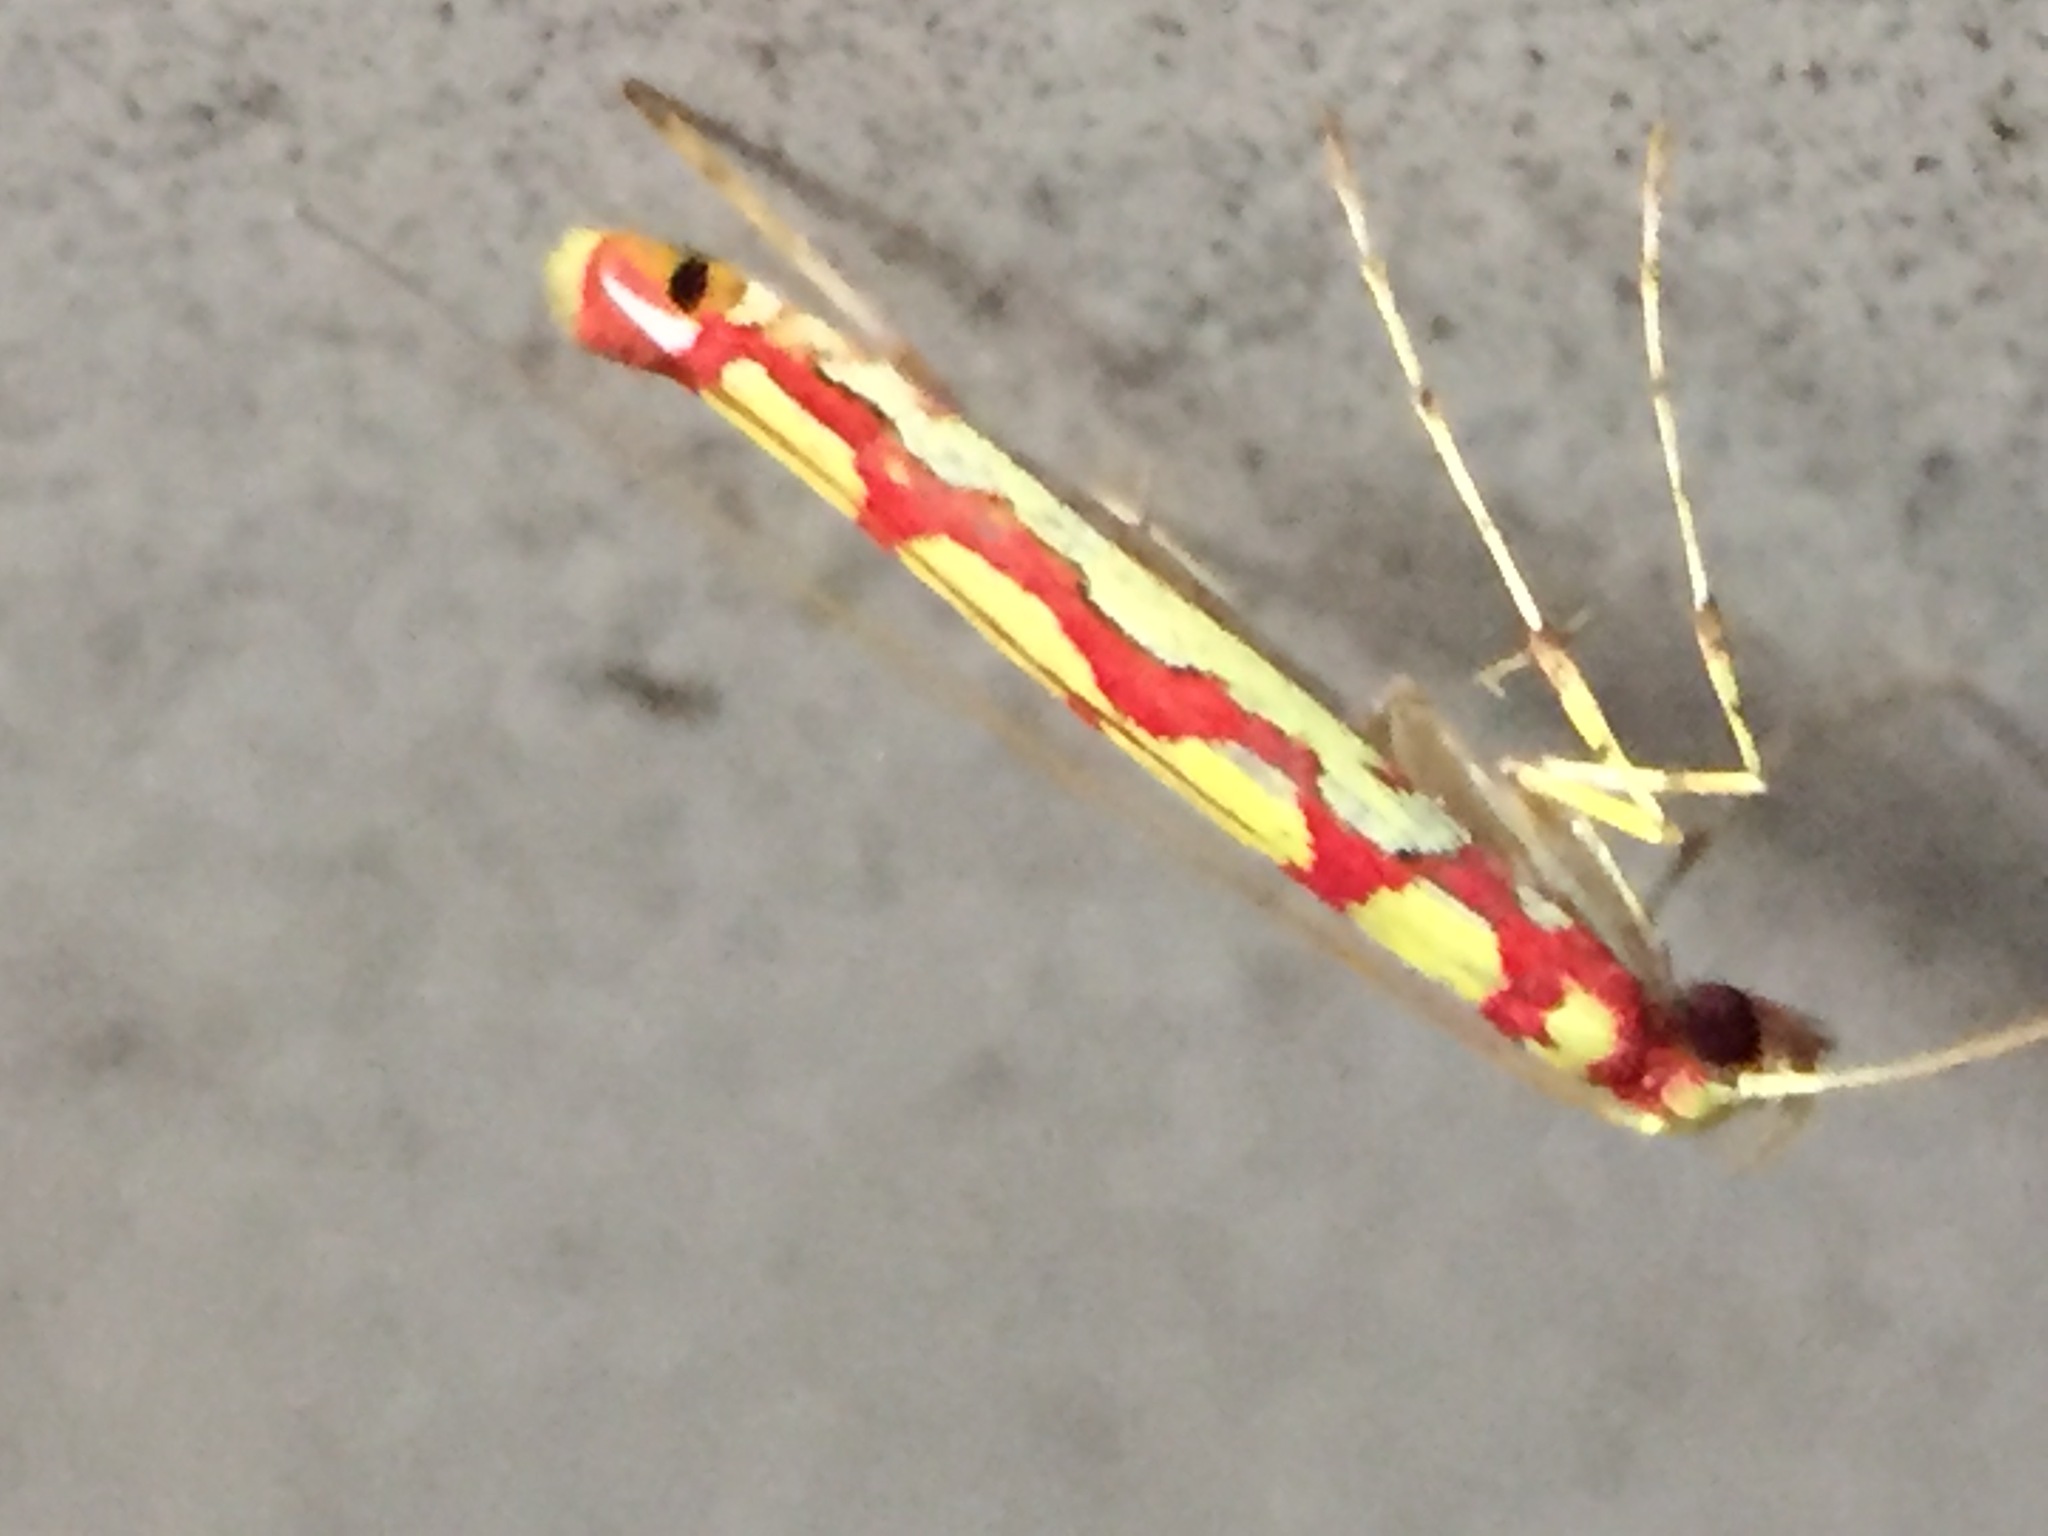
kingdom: Animalia
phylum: Arthropoda
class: Insecta
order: Lepidoptera
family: Gracillariidae
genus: Macarostola
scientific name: Macarostola miniella
